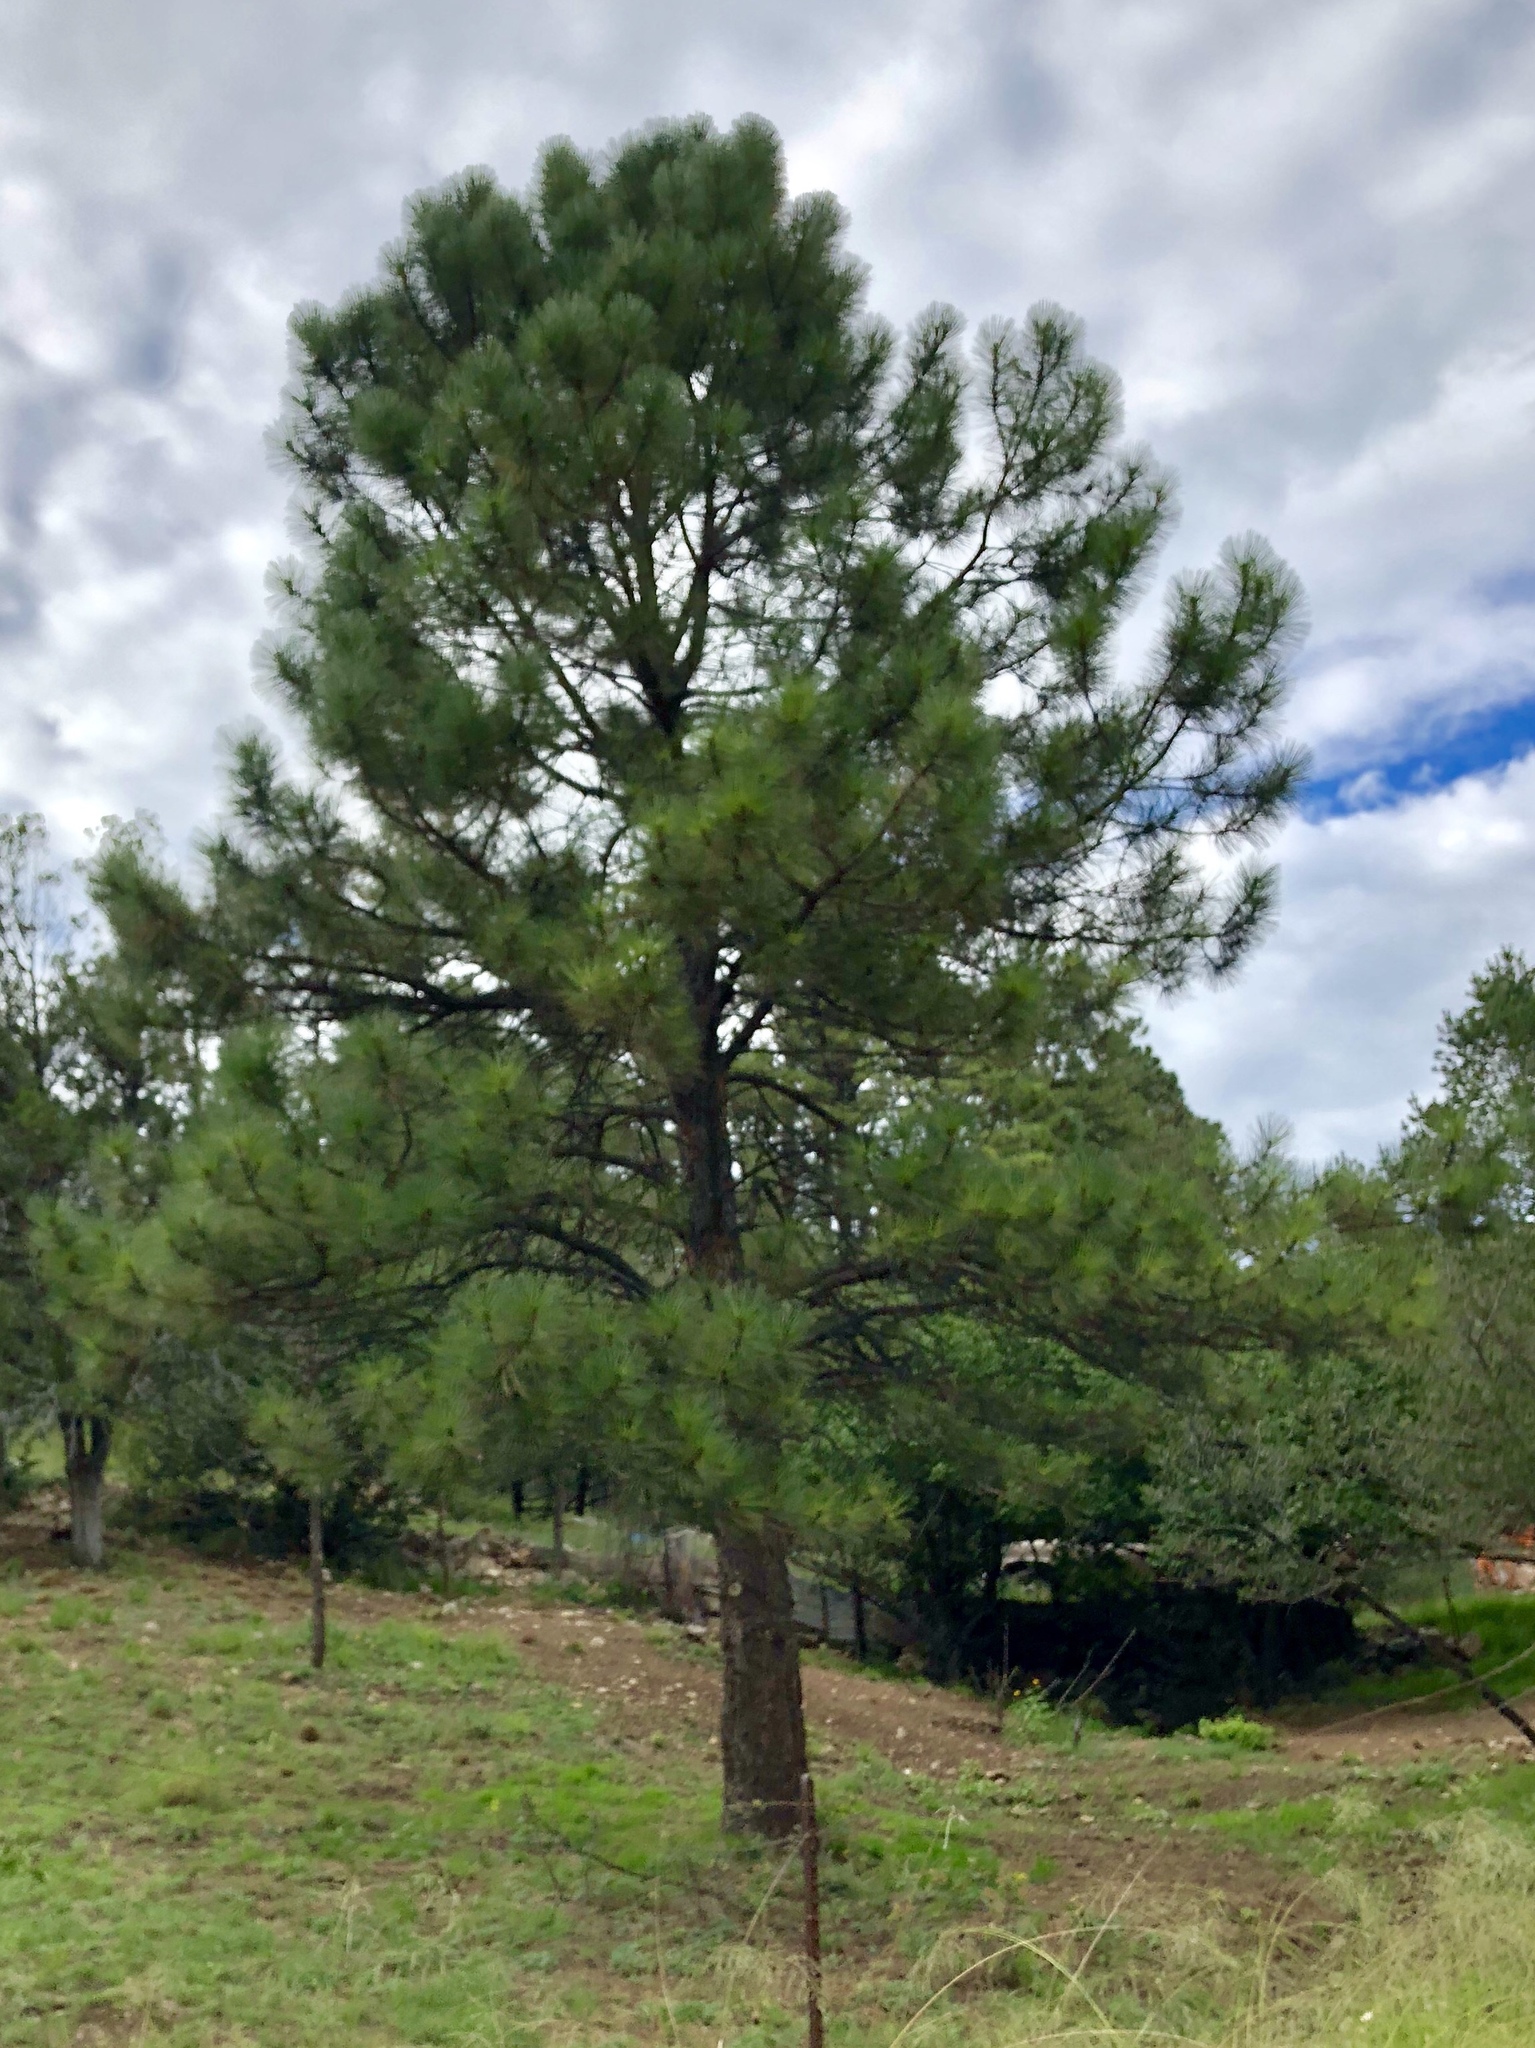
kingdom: Plantae
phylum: Tracheophyta
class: Pinopsida
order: Pinales
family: Pinaceae
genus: Pinus
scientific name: Pinus ponderosa
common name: Western yellow-pine
